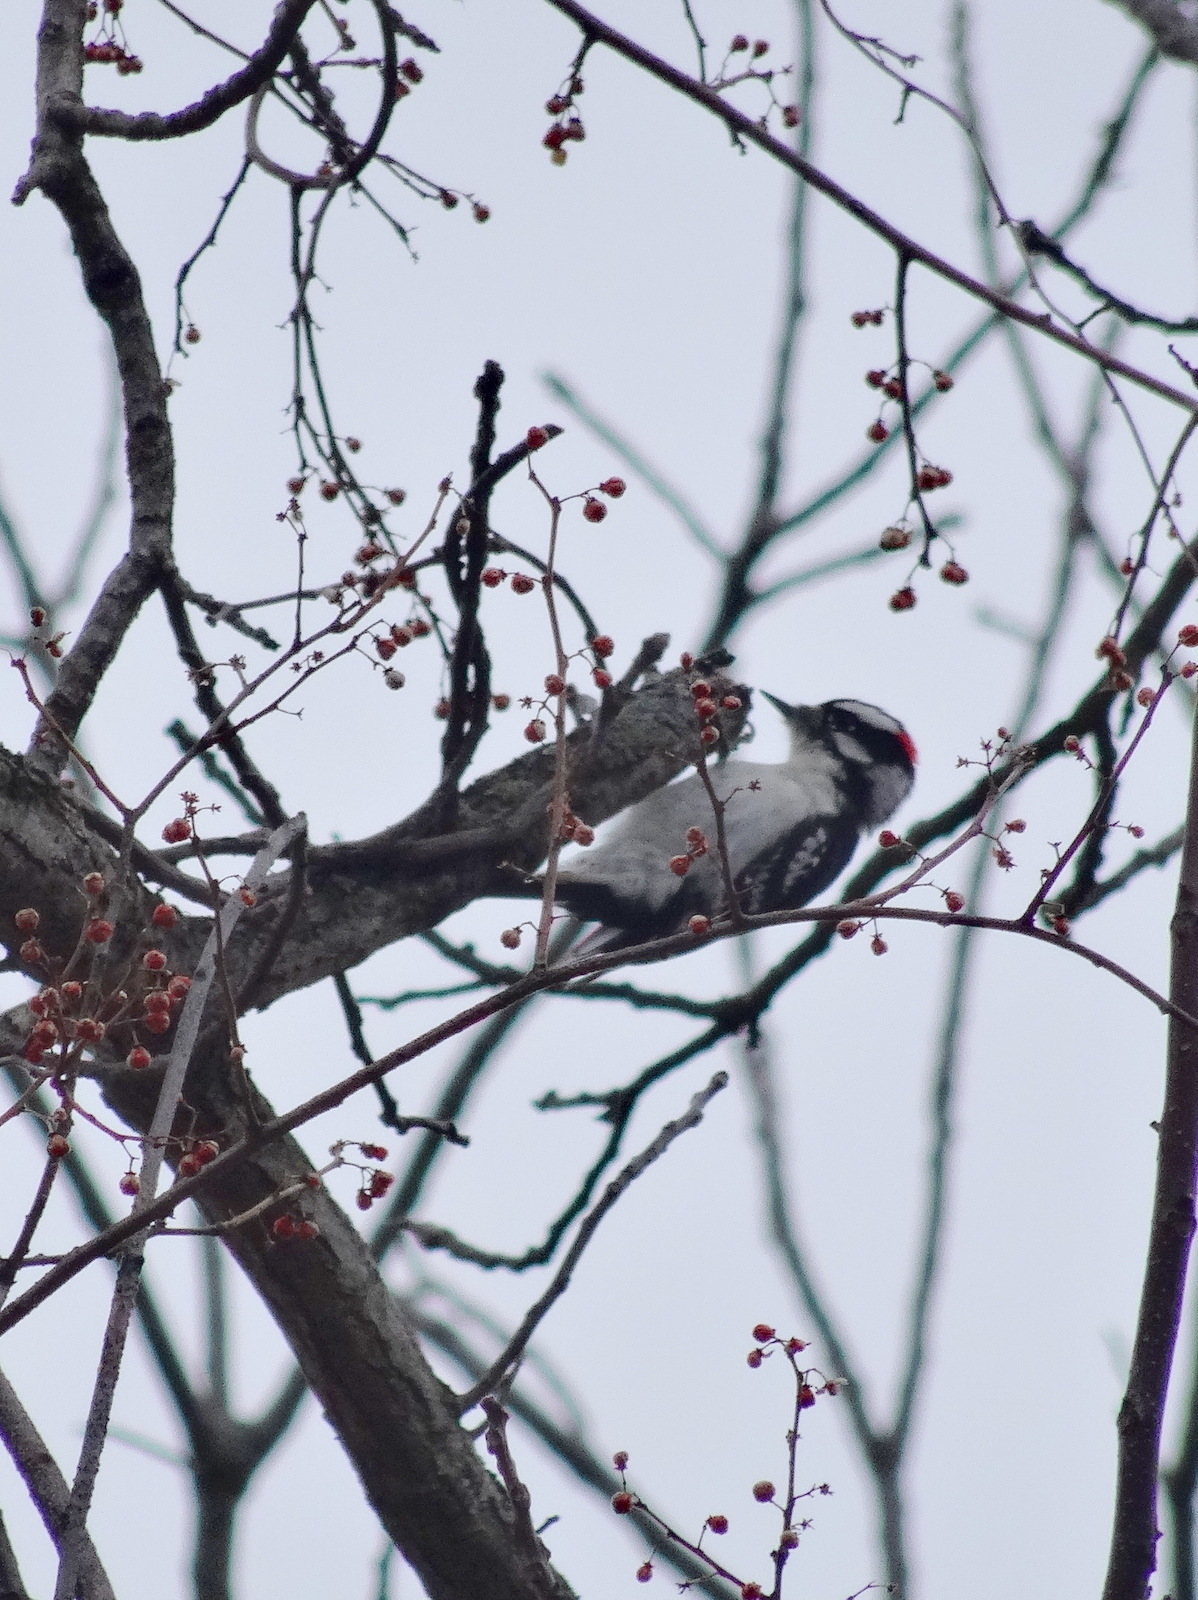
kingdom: Animalia
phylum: Chordata
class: Aves
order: Piciformes
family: Picidae
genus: Dryobates
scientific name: Dryobates pubescens
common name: Downy woodpecker
